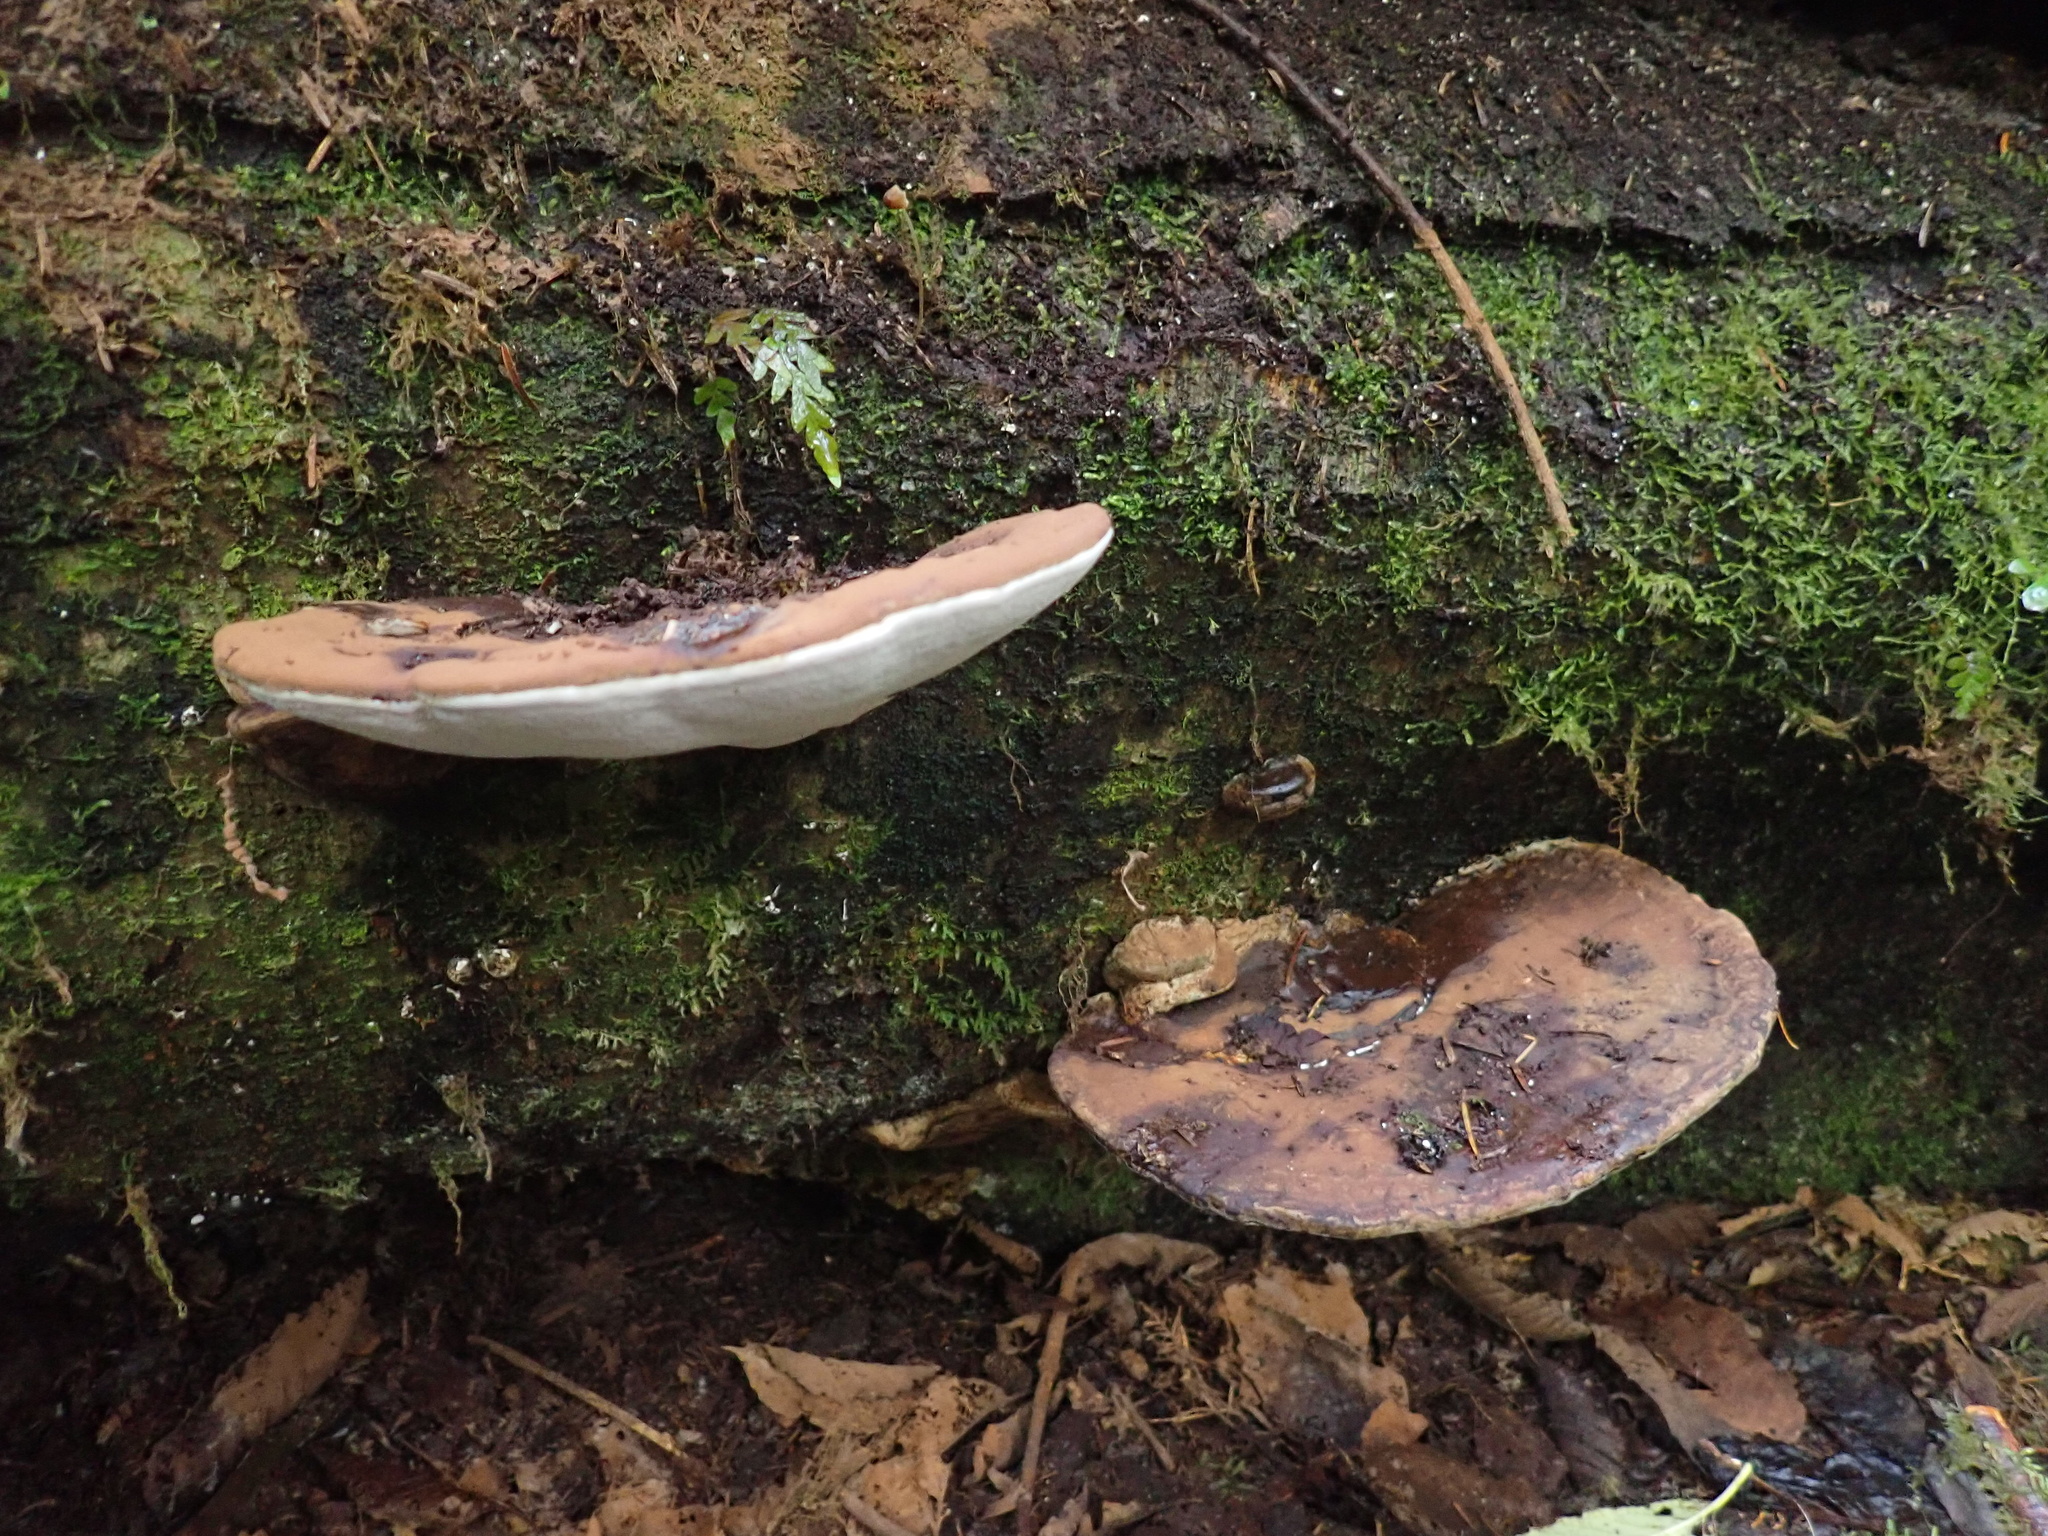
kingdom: Fungi
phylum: Basidiomycota
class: Agaricomycetes
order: Polyporales
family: Polyporaceae
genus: Ganoderma
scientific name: Ganoderma applanatum
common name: Artist's bracket
